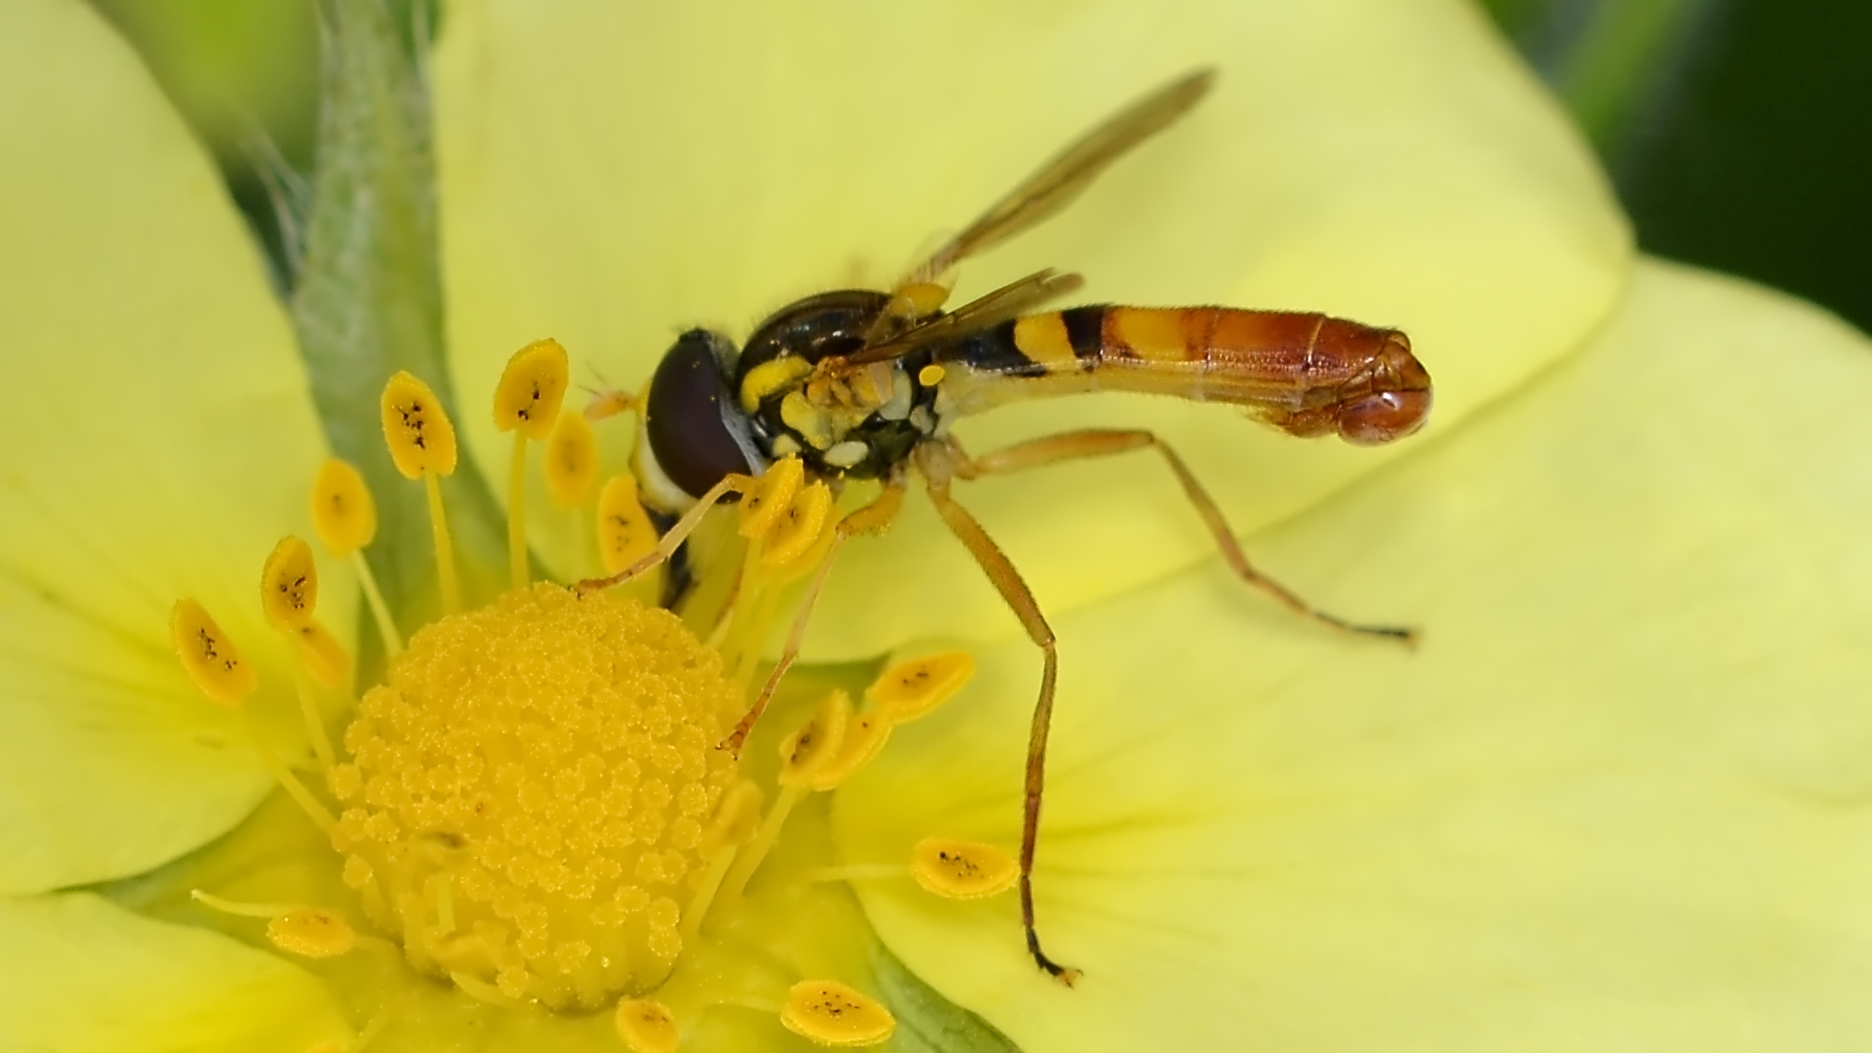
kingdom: Animalia
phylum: Arthropoda
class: Insecta
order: Diptera
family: Syrphidae
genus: Sphaerophoria
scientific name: Sphaerophoria contigua
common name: Tufted globetail
